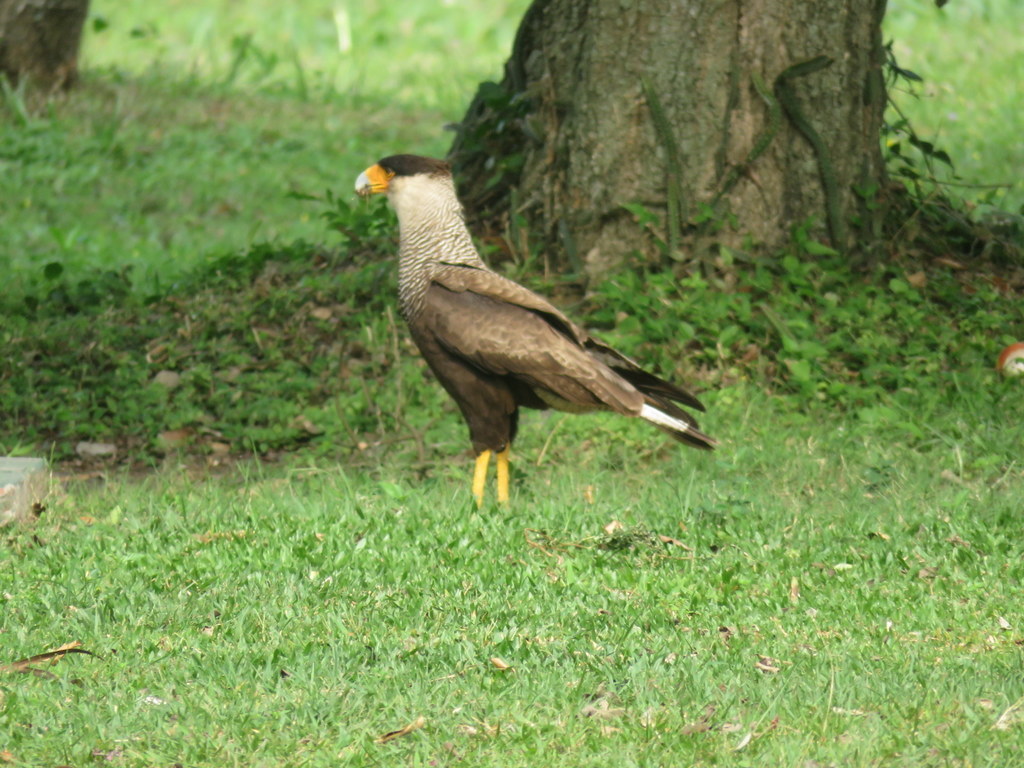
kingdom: Animalia
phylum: Chordata
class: Aves
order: Falconiformes
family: Falconidae
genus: Caracara
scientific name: Caracara plancus
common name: Southern caracara
